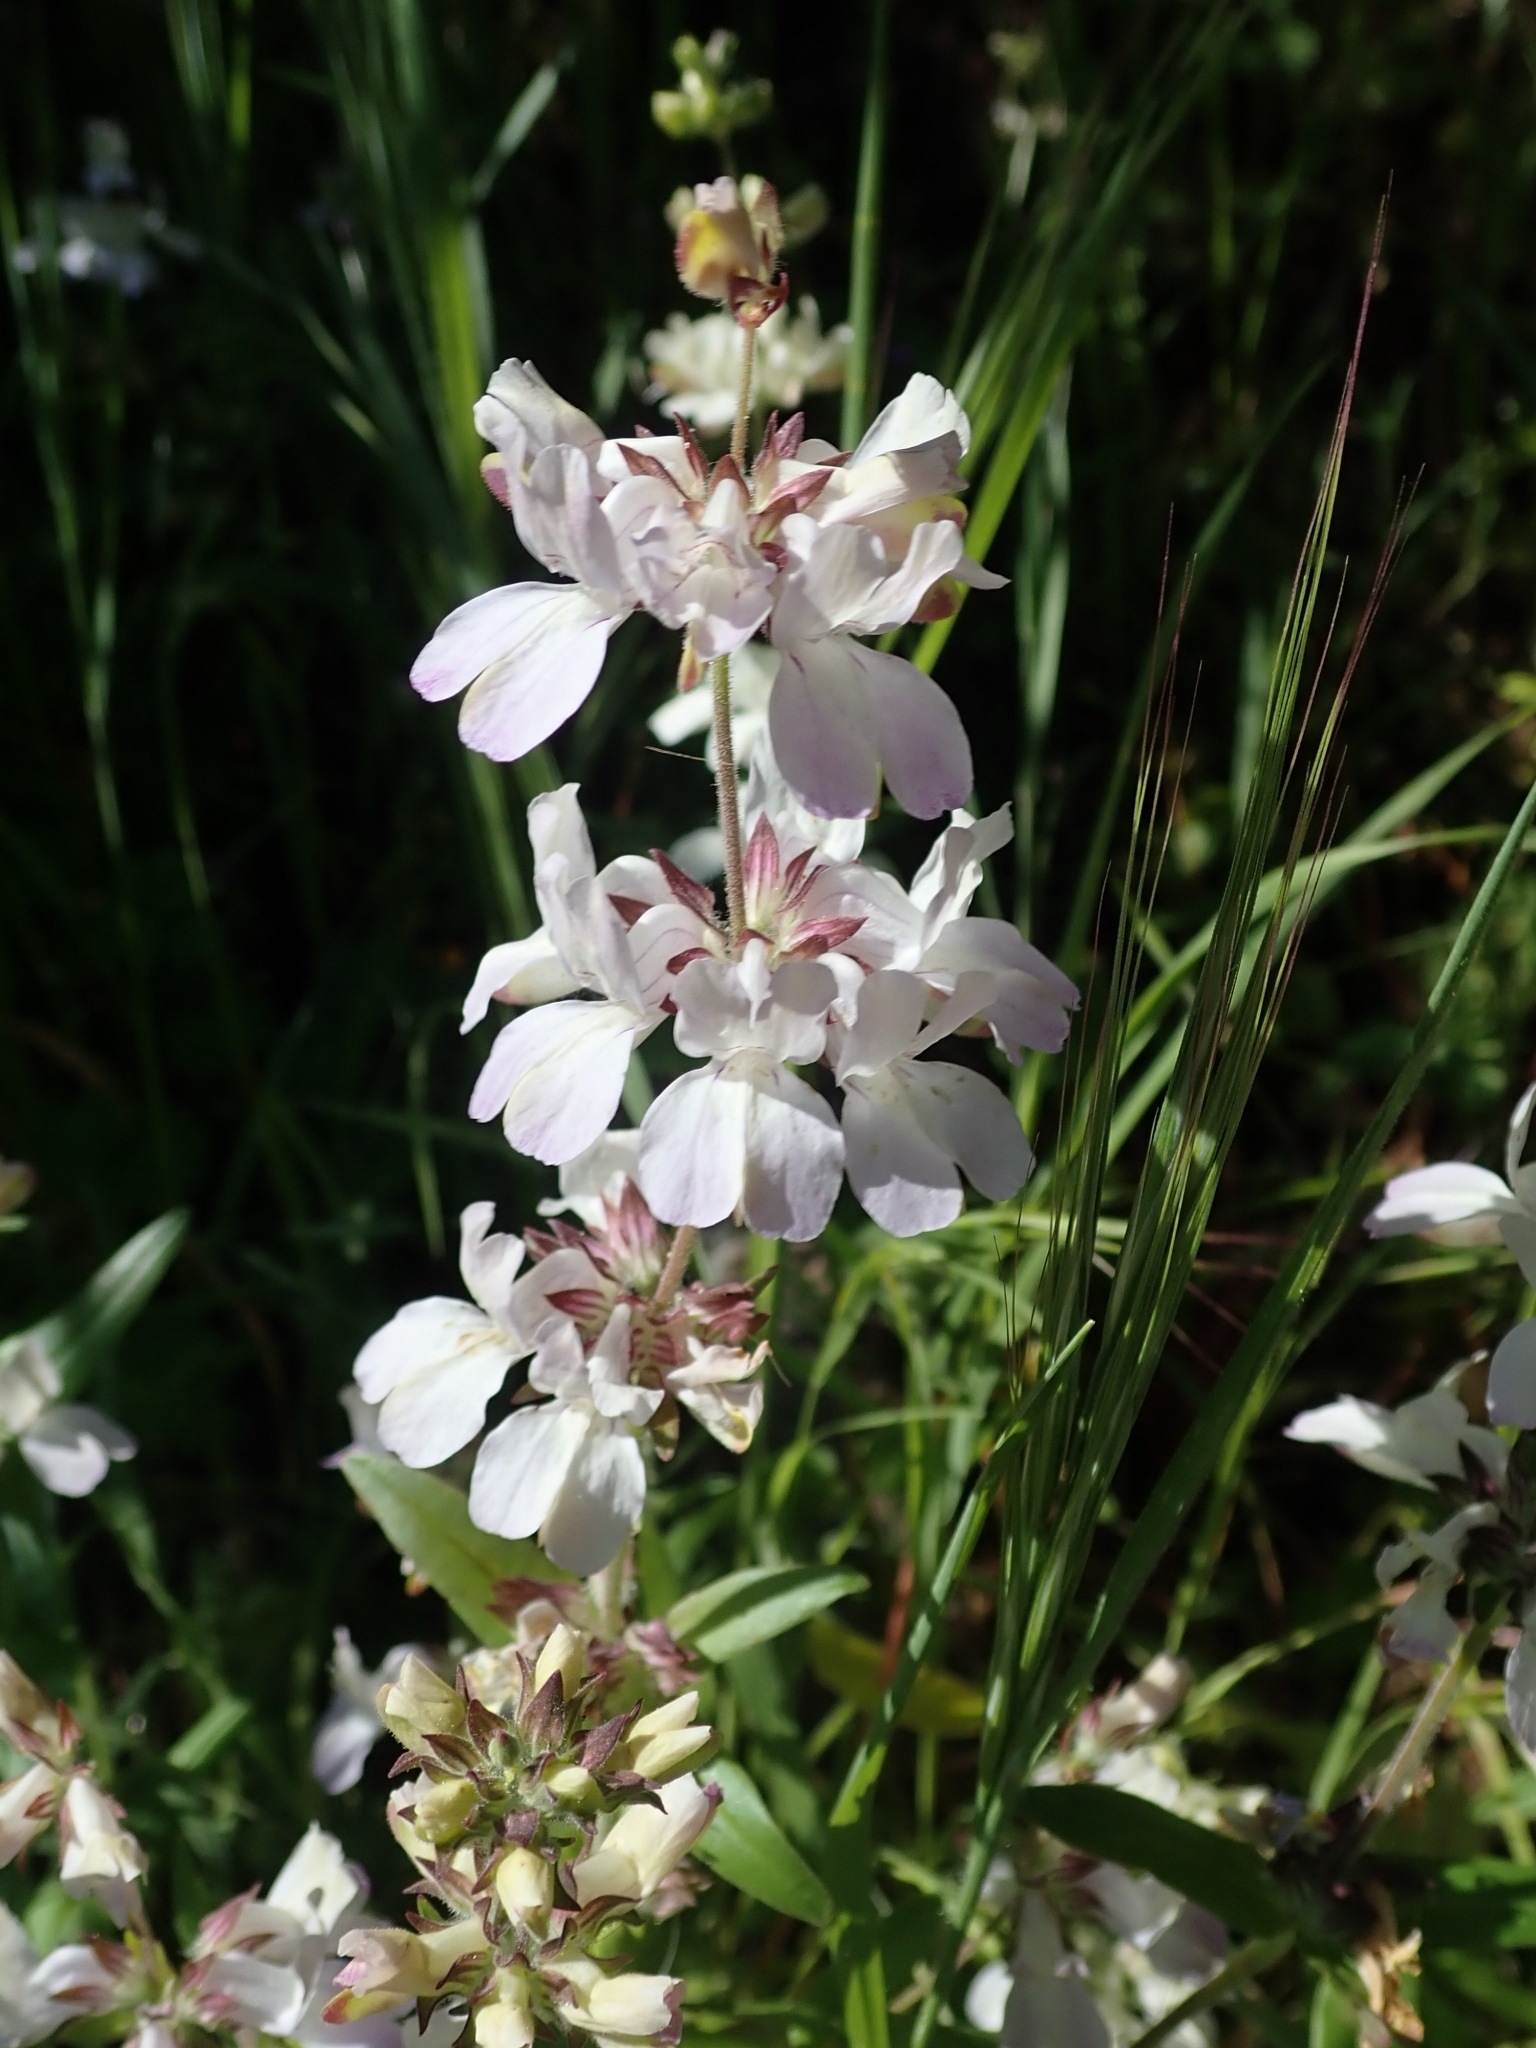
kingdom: Plantae
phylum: Tracheophyta
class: Magnoliopsida
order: Lamiales
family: Plantaginaceae
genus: Collinsia
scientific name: Collinsia heterophylla
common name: Chinese-houses
